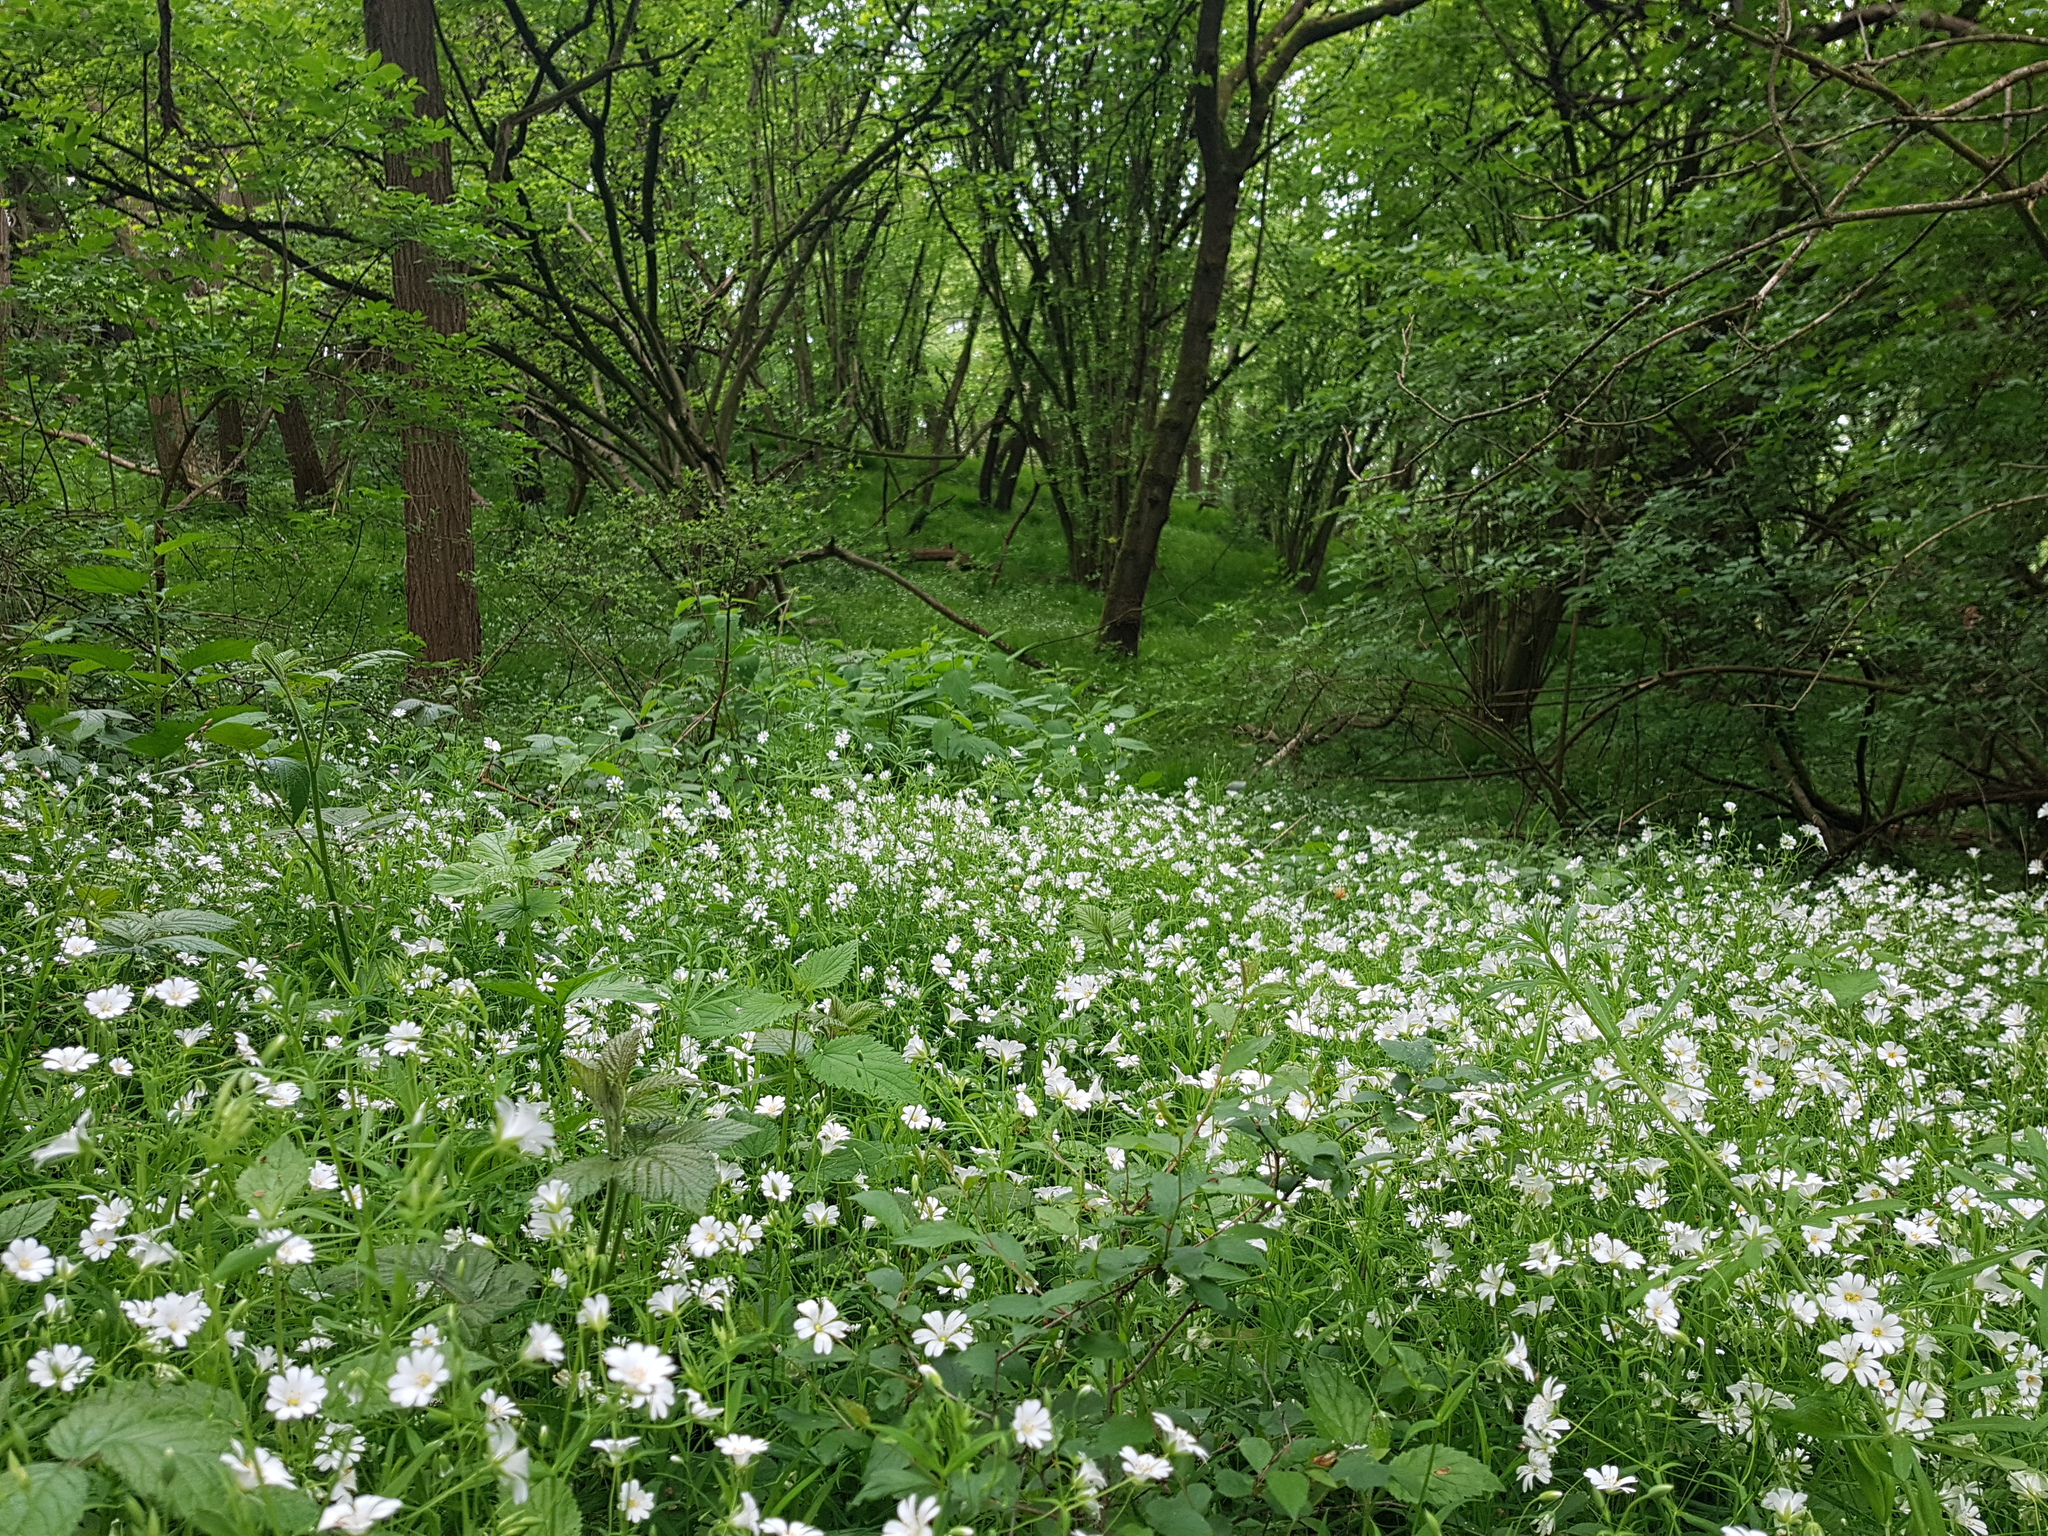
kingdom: Plantae
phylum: Tracheophyta
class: Magnoliopsida
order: Caryophyllales
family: Caryophyllaceae
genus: Rabelera
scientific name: Rabelera holostea
